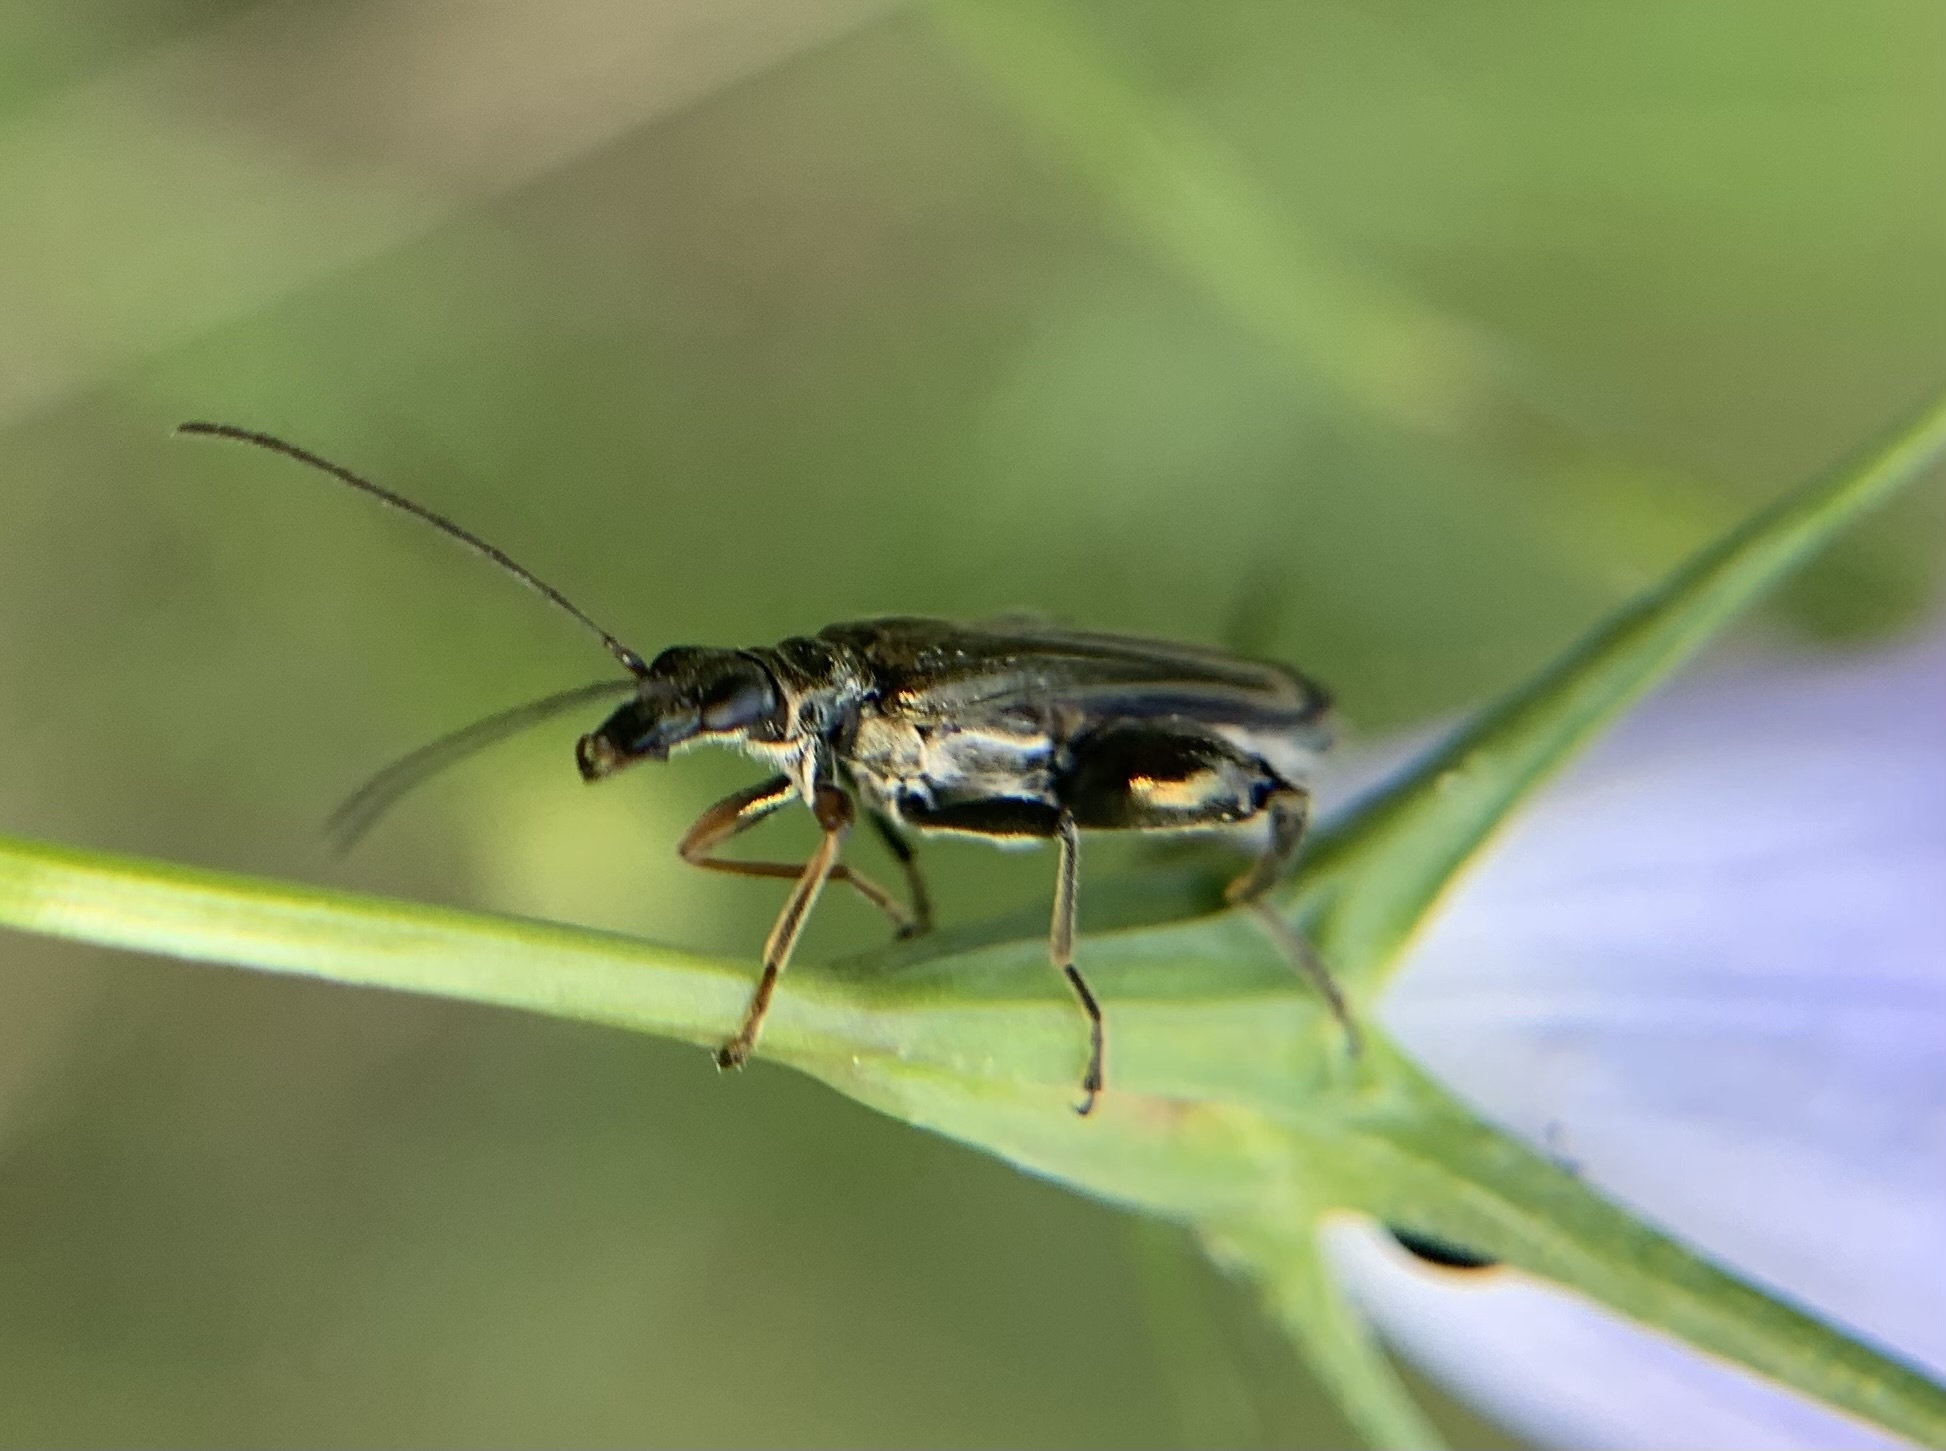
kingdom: Animalia
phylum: Arthropoda
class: Insecta
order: Coleoptera
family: Oedemeridae
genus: Oedemera
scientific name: Oedemera flavipes
